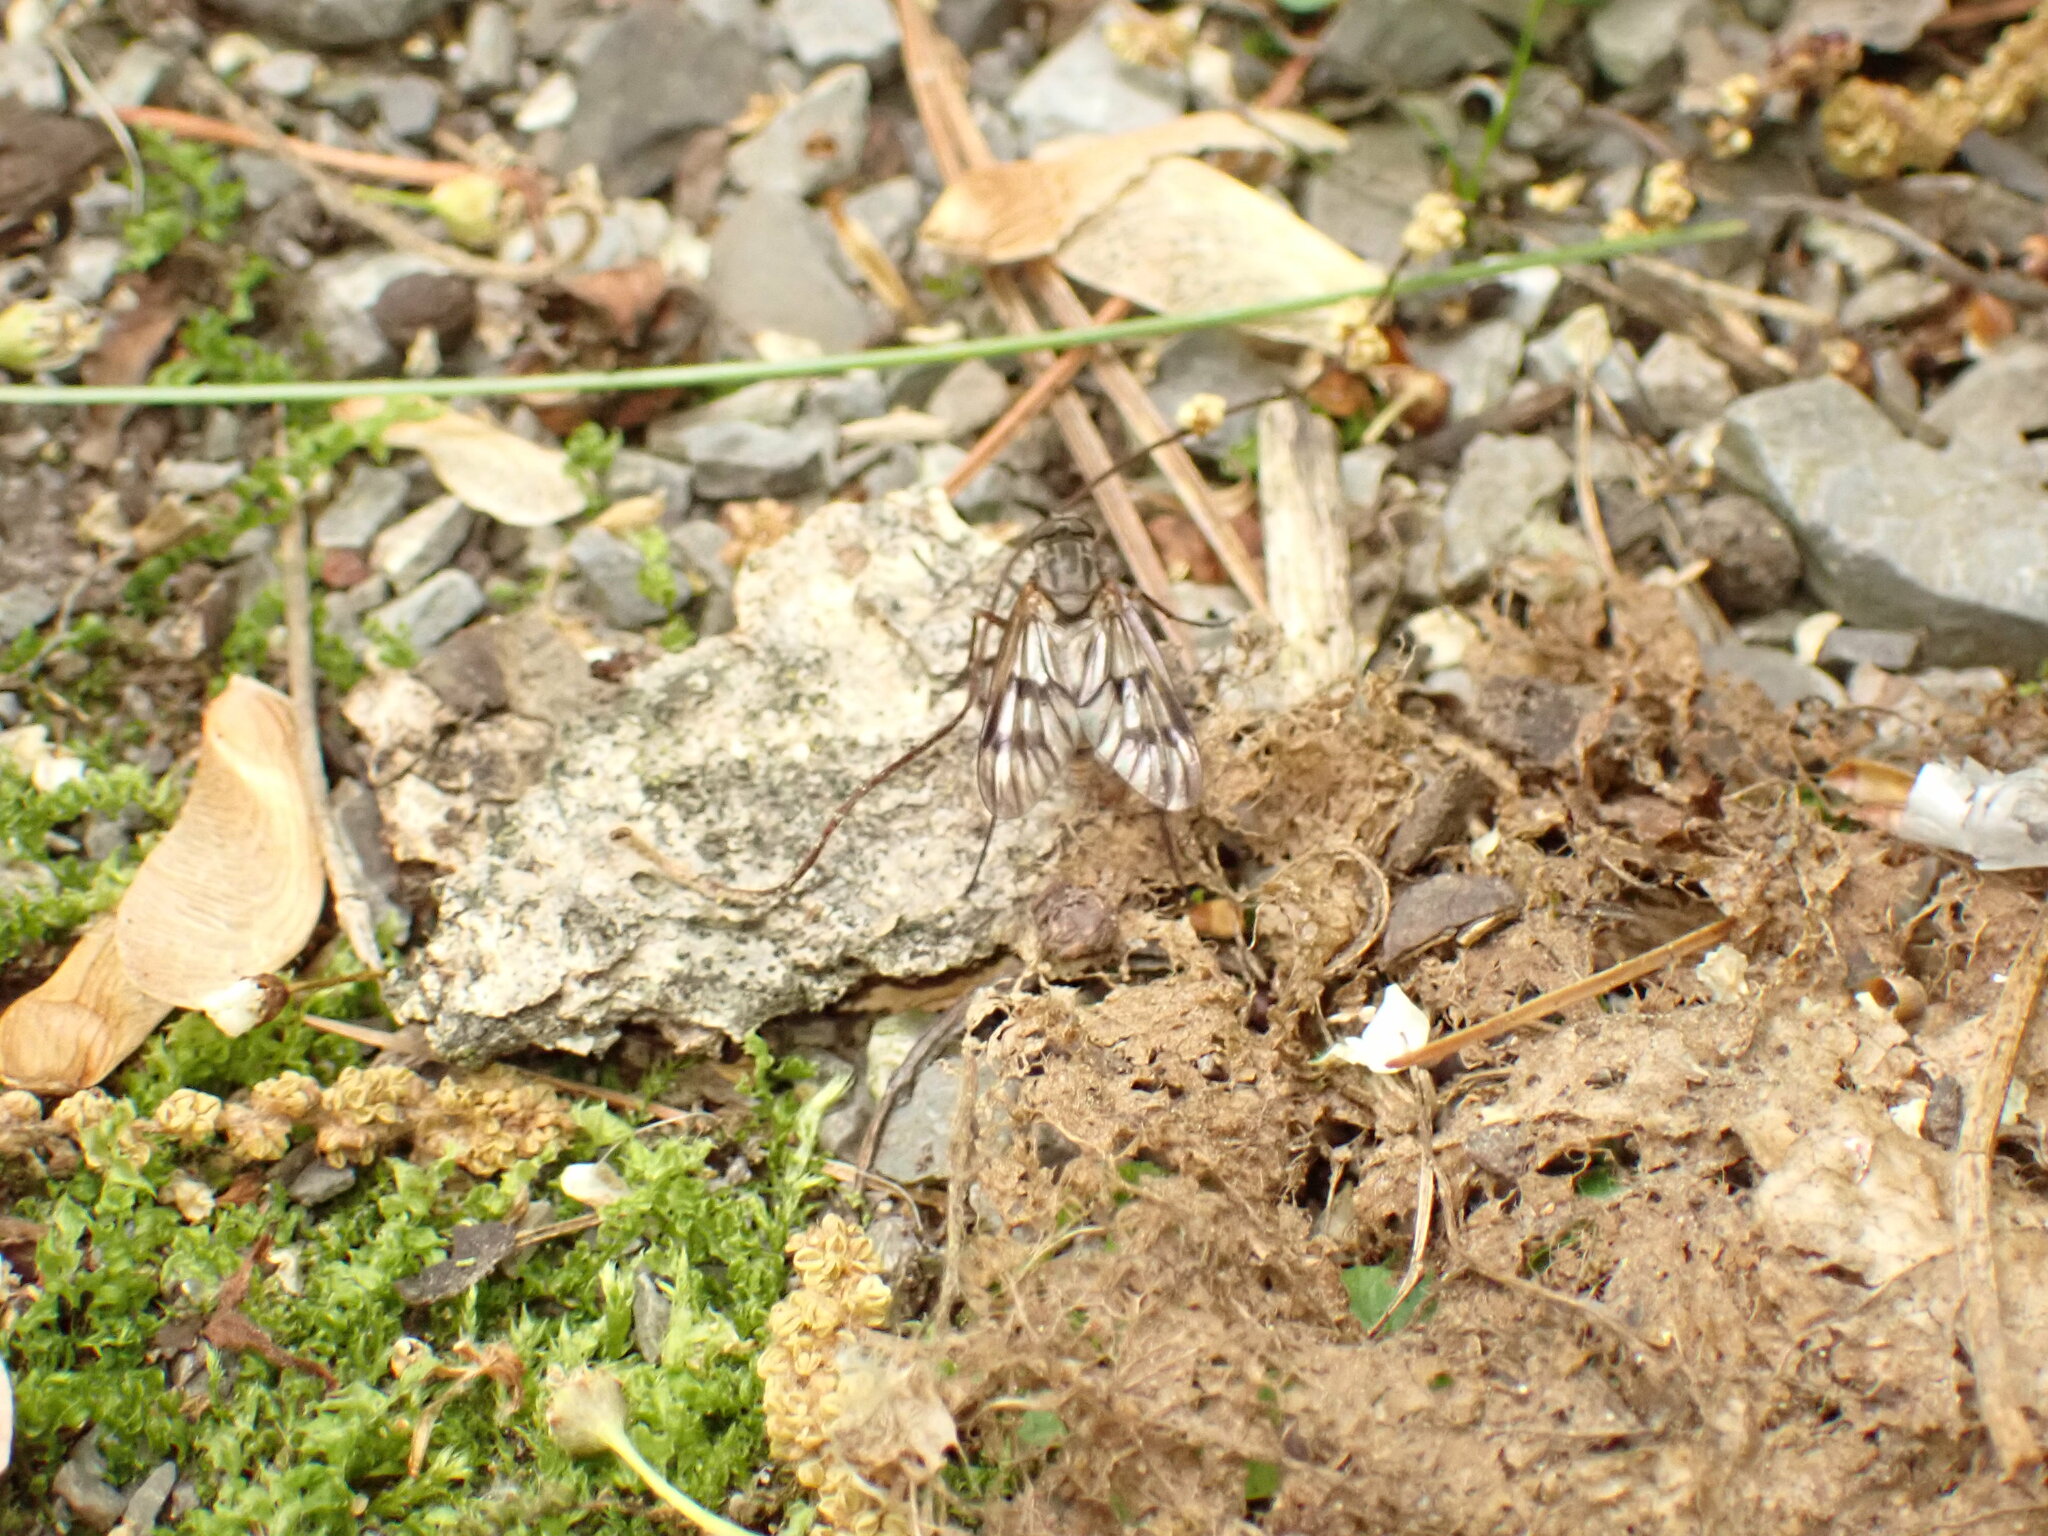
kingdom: Animalia
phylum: Arthropoda
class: Insecta
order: Diptera
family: Rhagionidae
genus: Rhagio
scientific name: Rhagio mystaceus
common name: Common snipe fly
